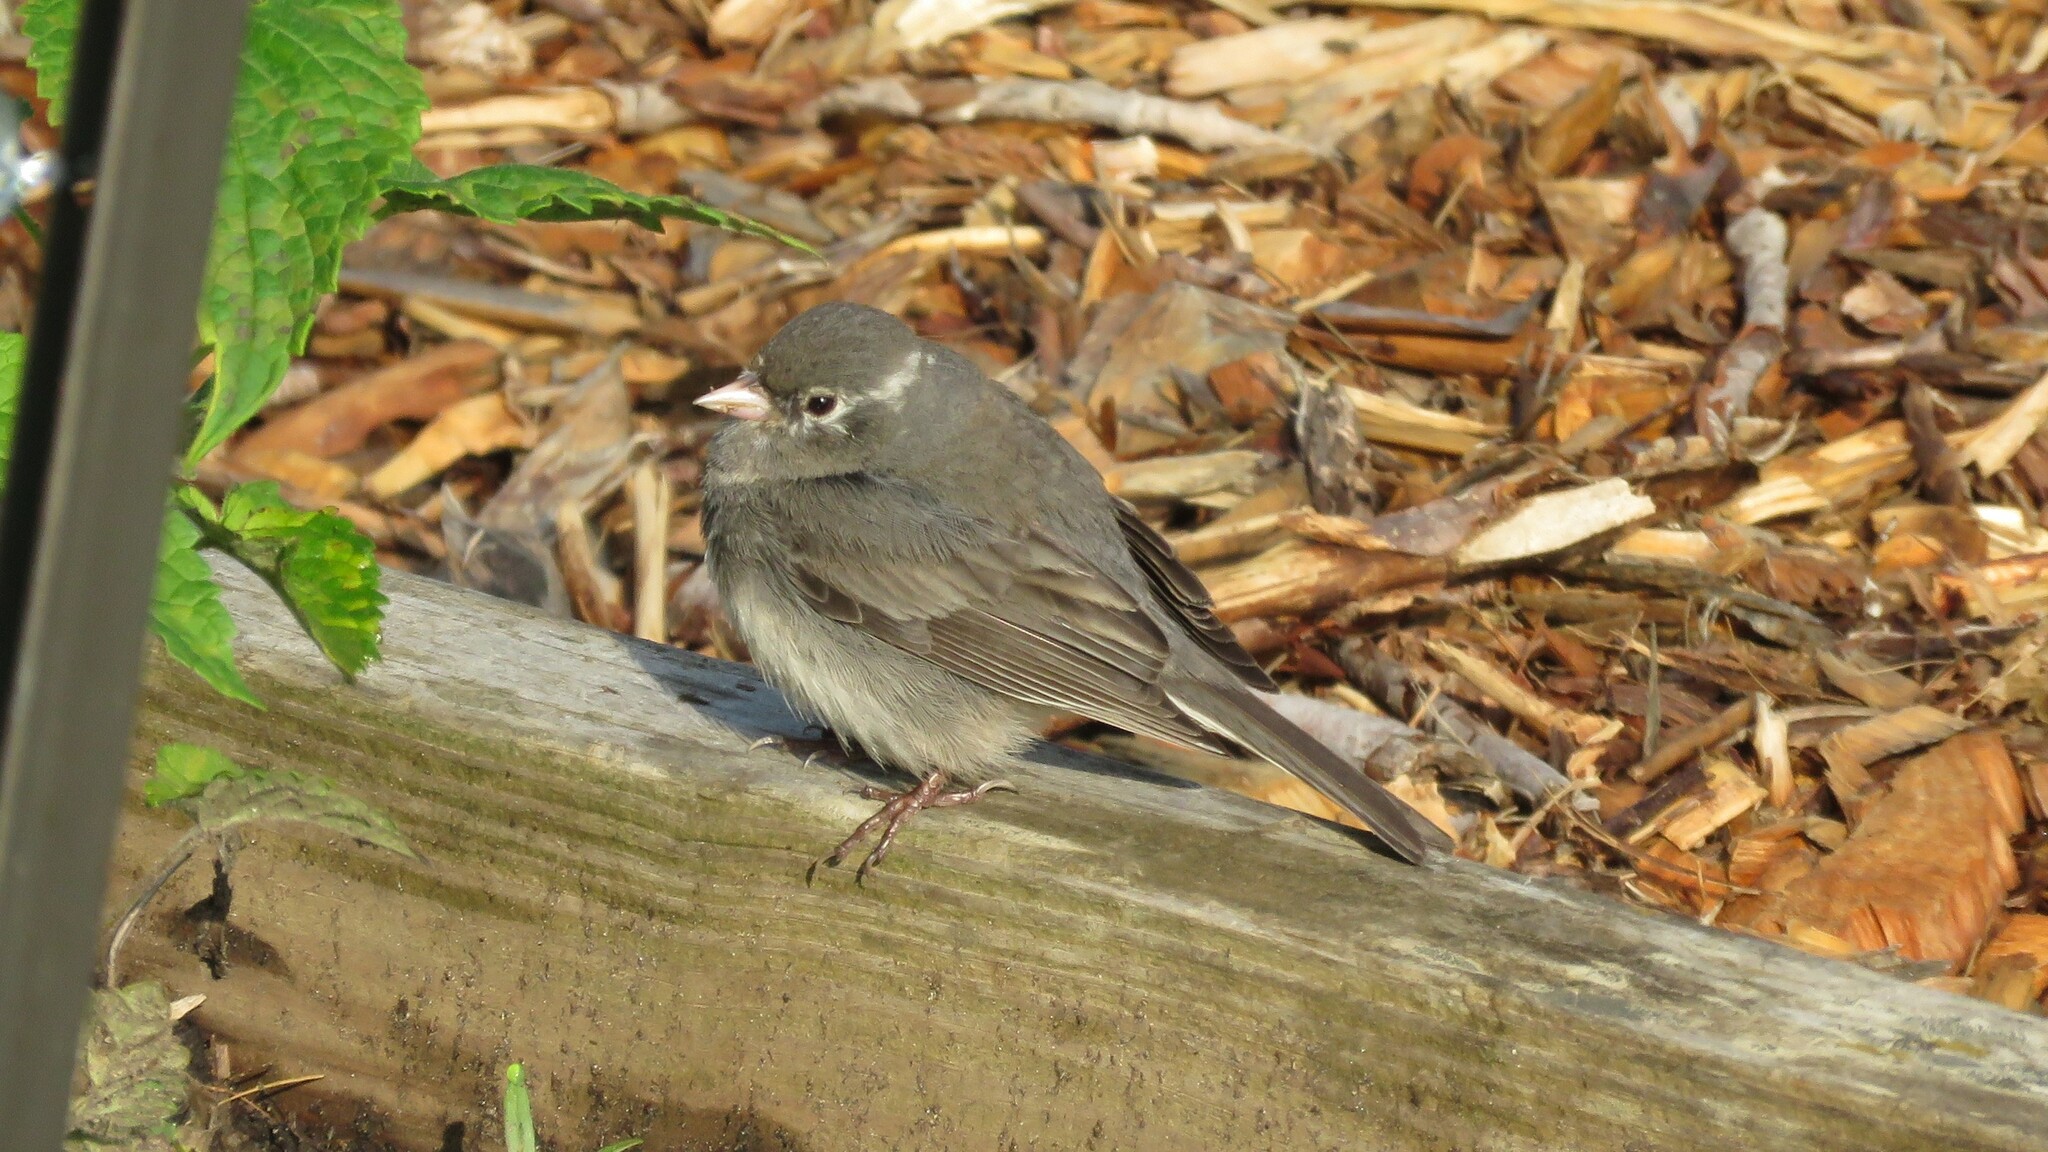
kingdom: Animalia
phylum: Chordata
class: Aves
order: Passeriformes
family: Passerellidae
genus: Junco
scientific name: Junco hyemalis
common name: Dark-eyed junco
